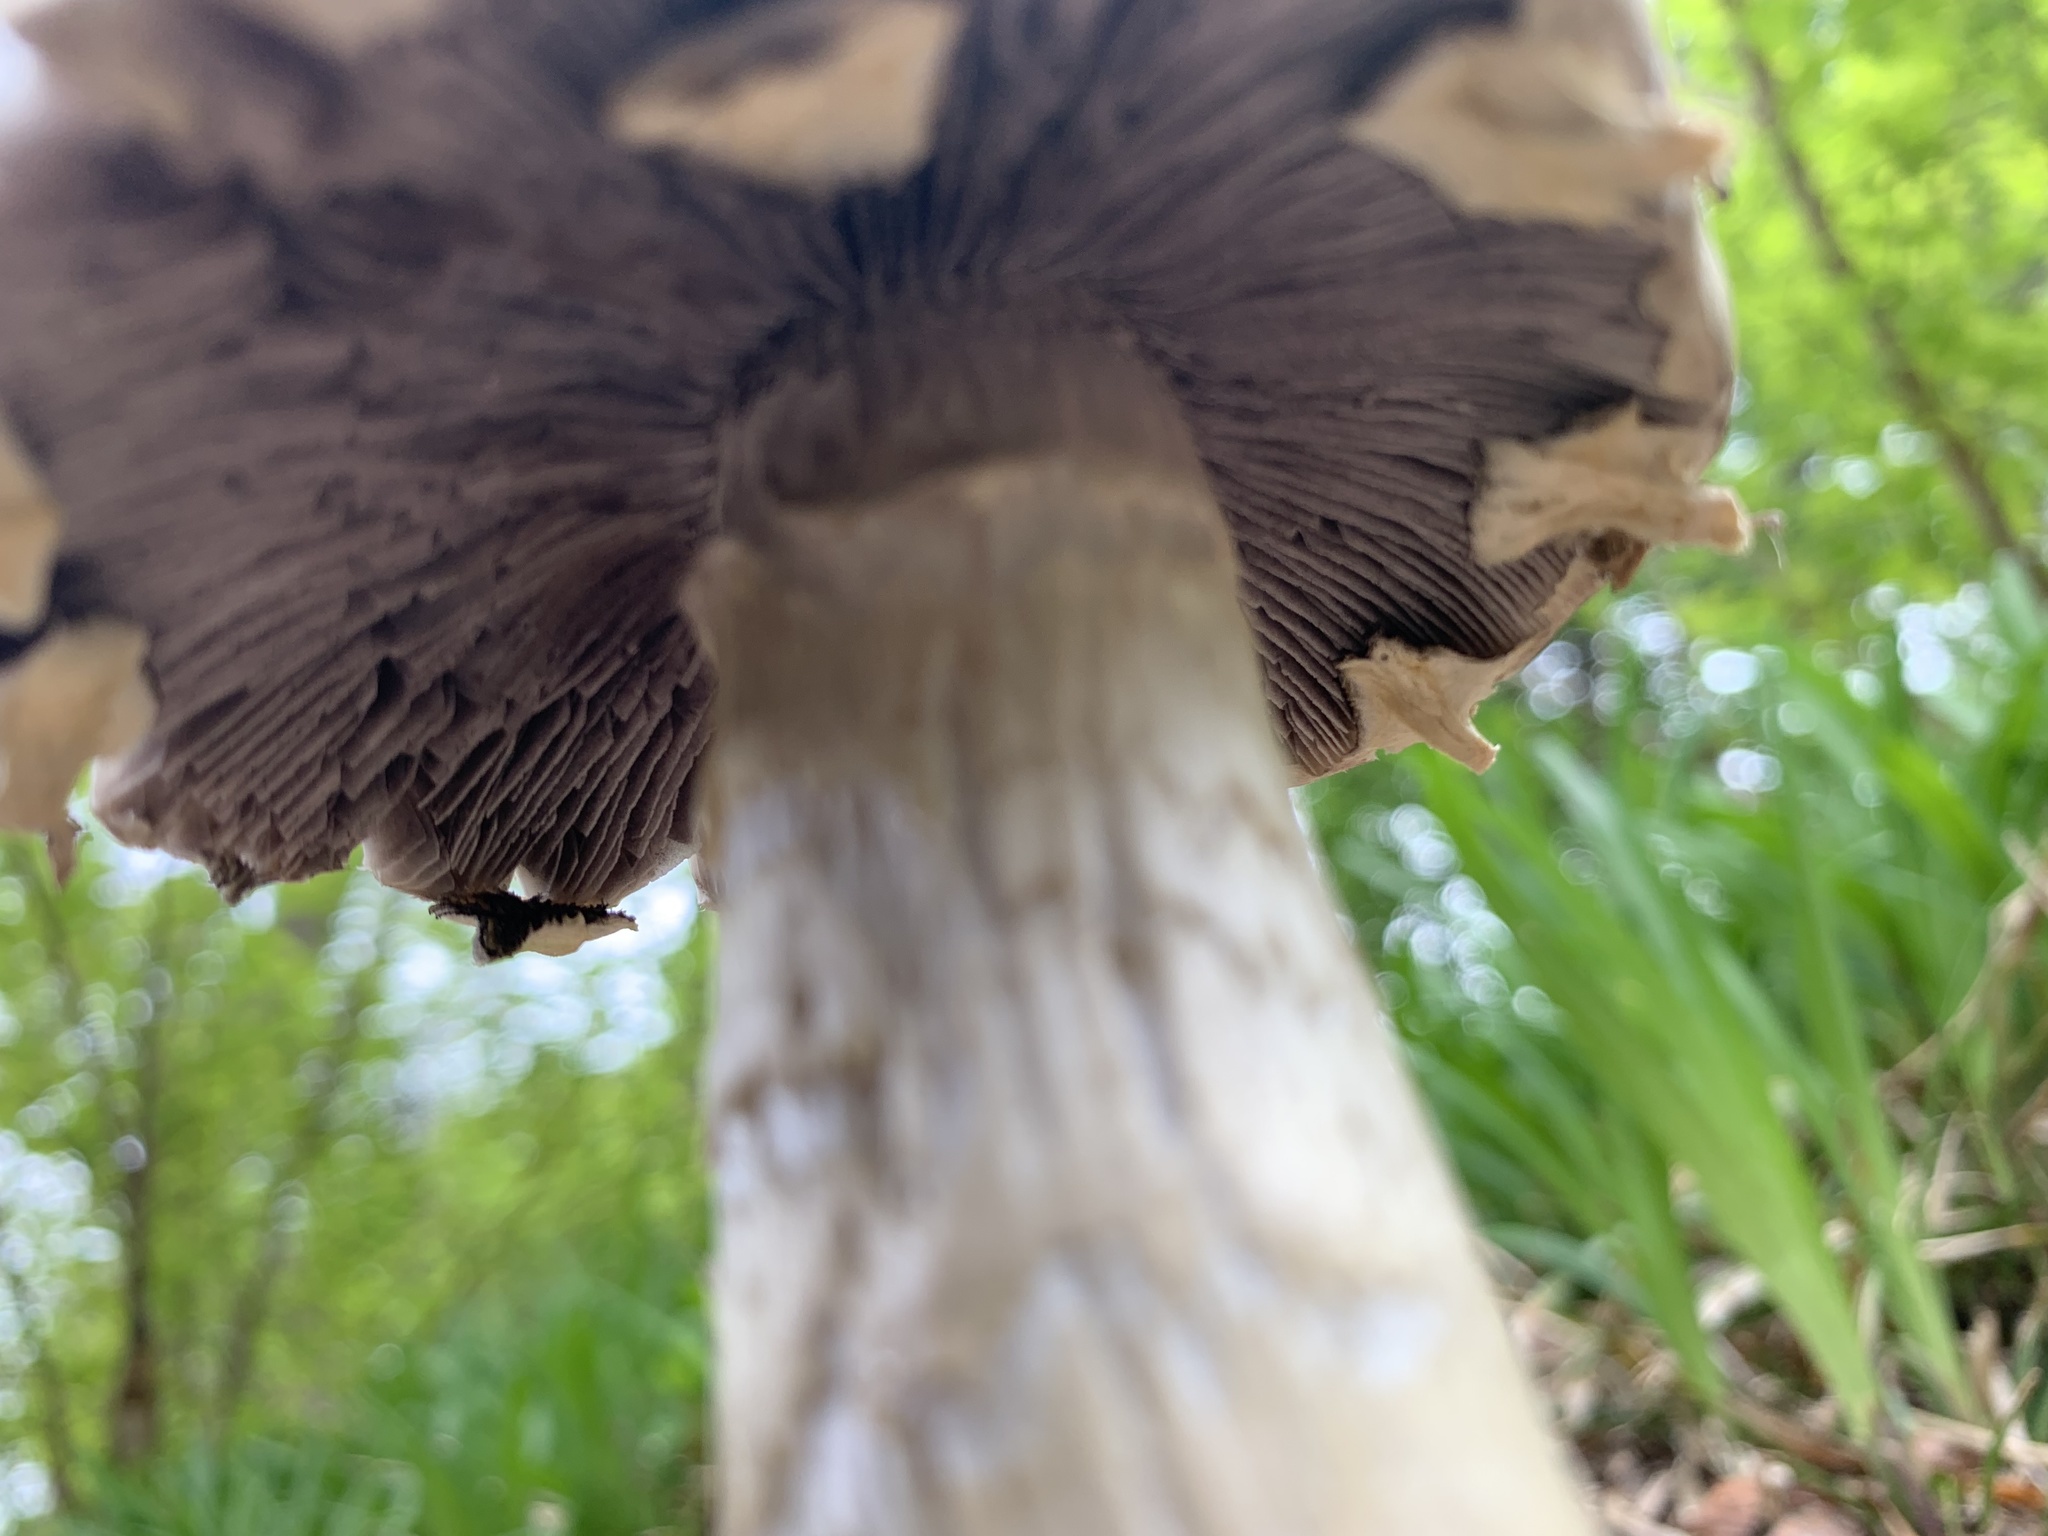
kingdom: Fungi
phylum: Basidiomycota
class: Agaricomycetes
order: Agaricales
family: Strophariaceae
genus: Stropharia
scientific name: Stropharia rugosoannulata
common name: Wine roundhead
